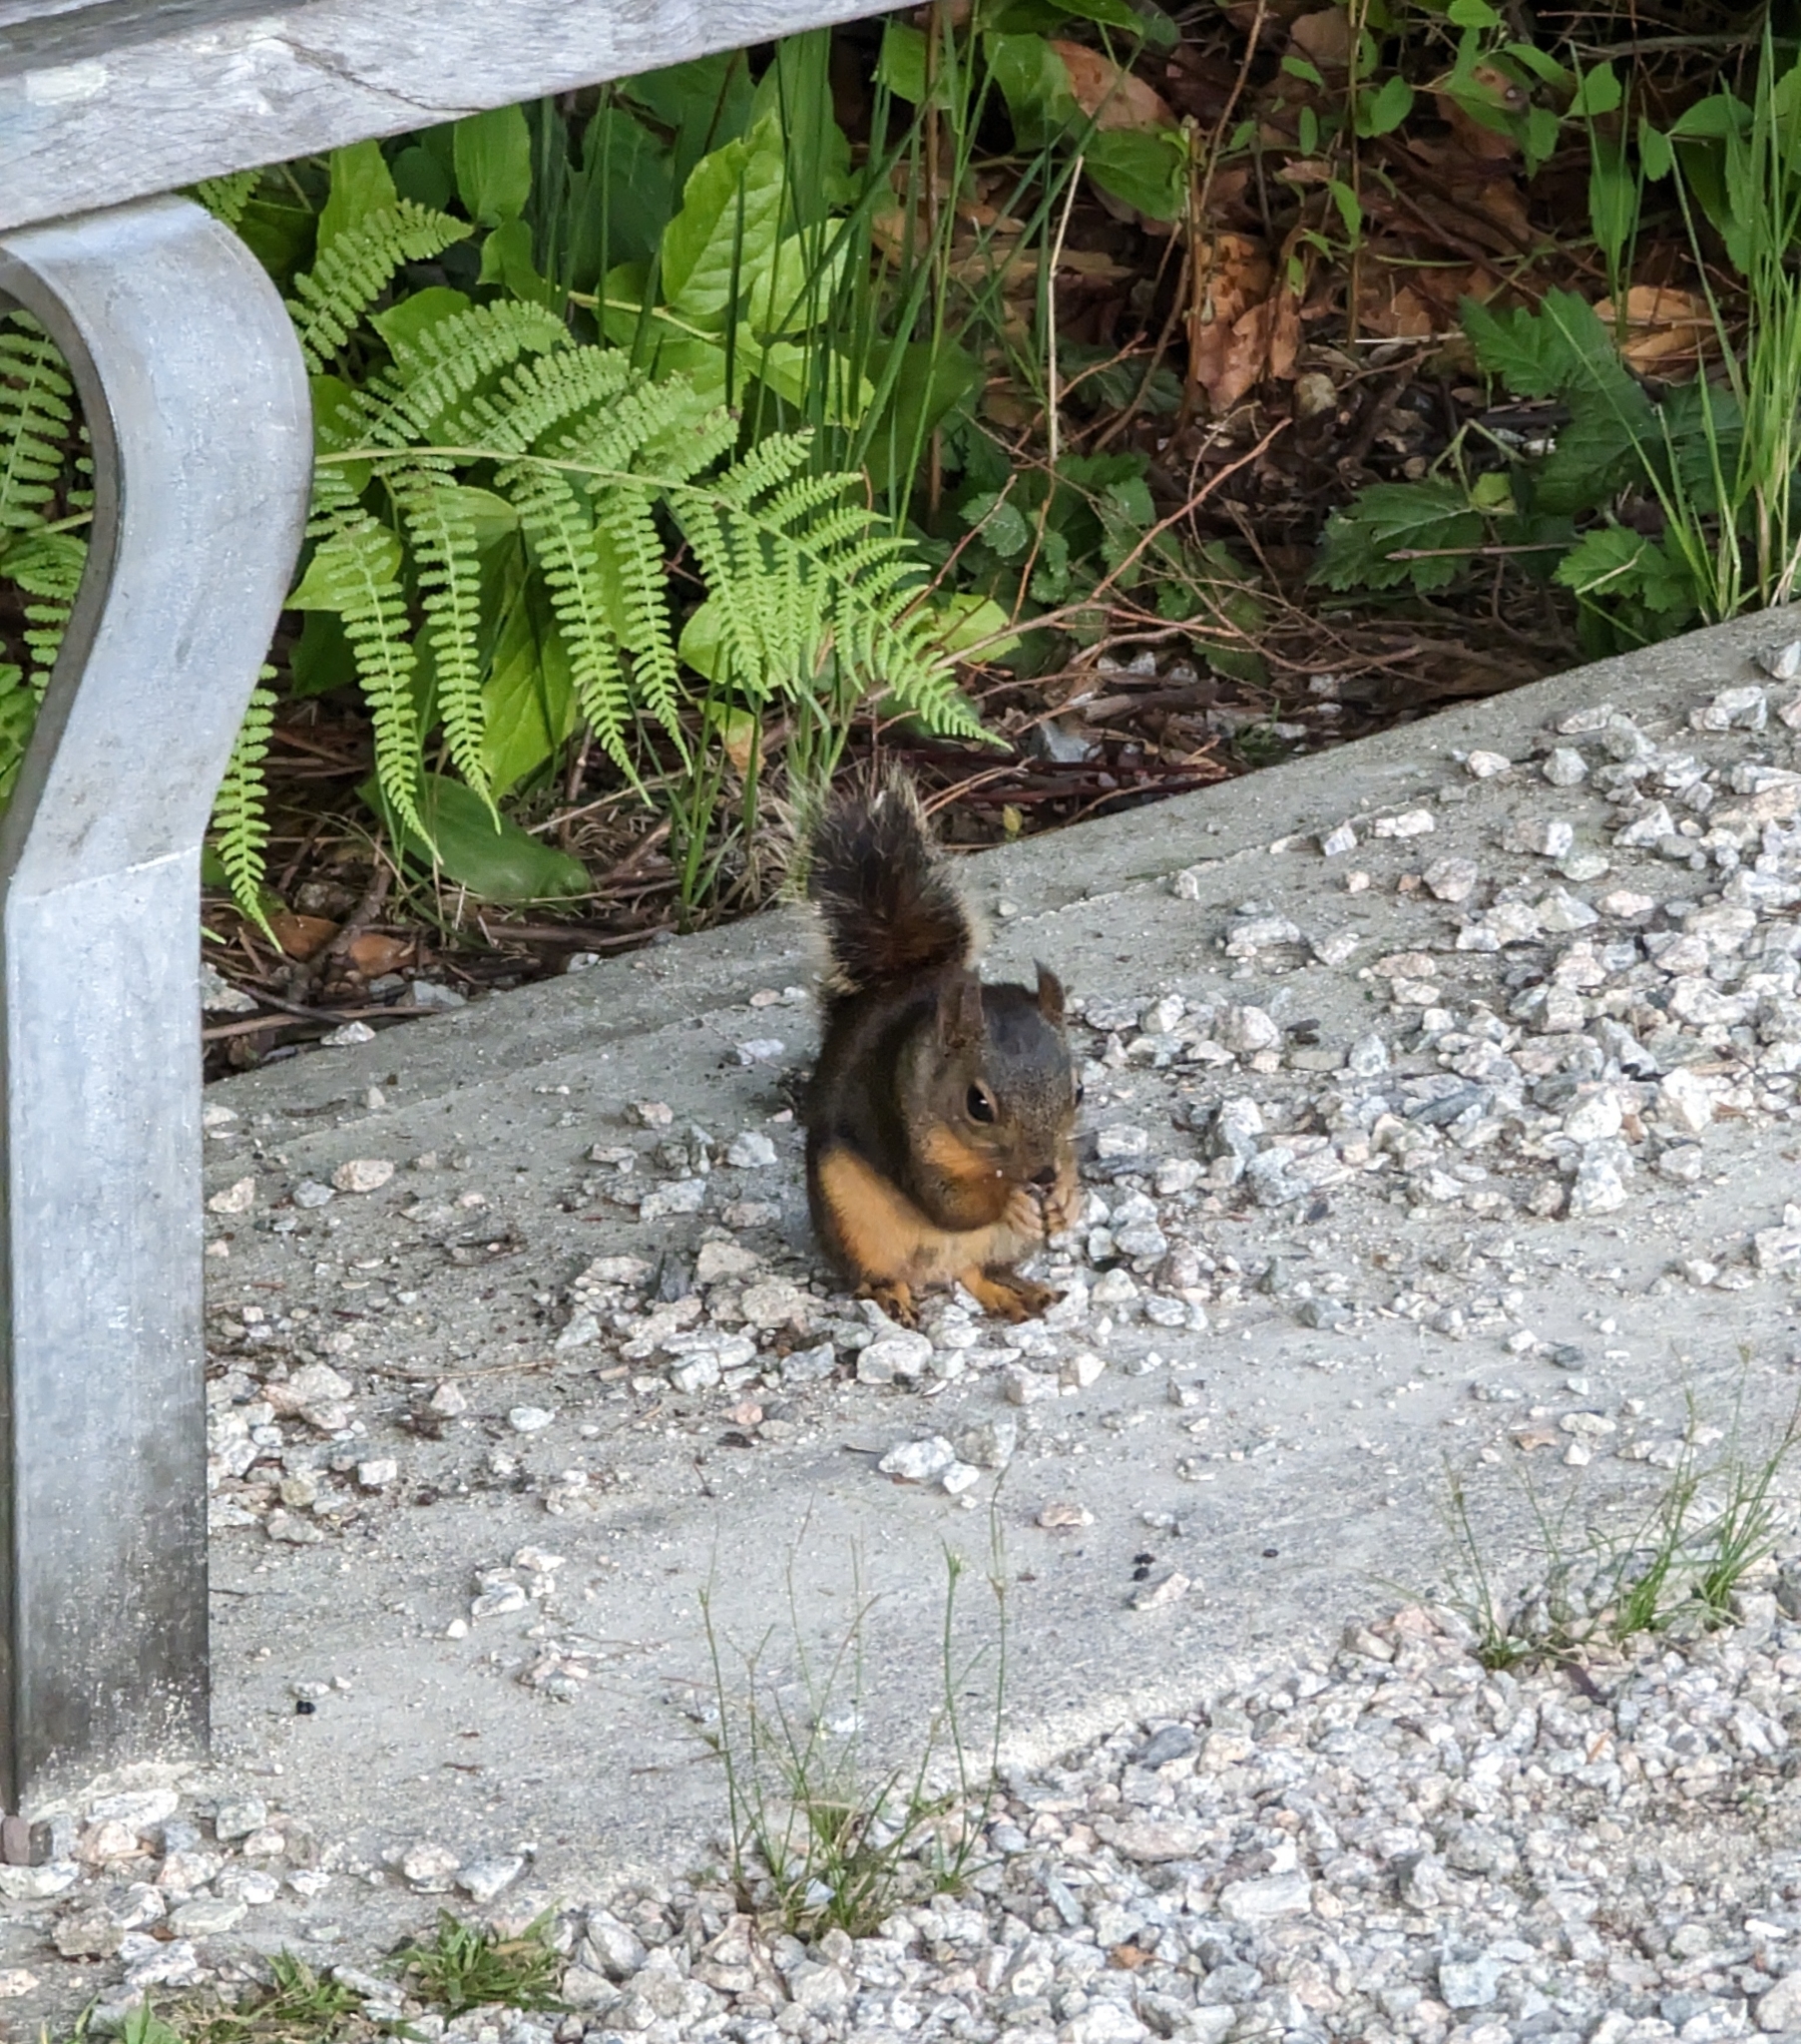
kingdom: Animalia
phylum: Chordata
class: Mammalia
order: Rodentia
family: Sciuridae
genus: Tamiasciurus
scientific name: Tamiasciurus douglasii
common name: Douglas's squirrel
